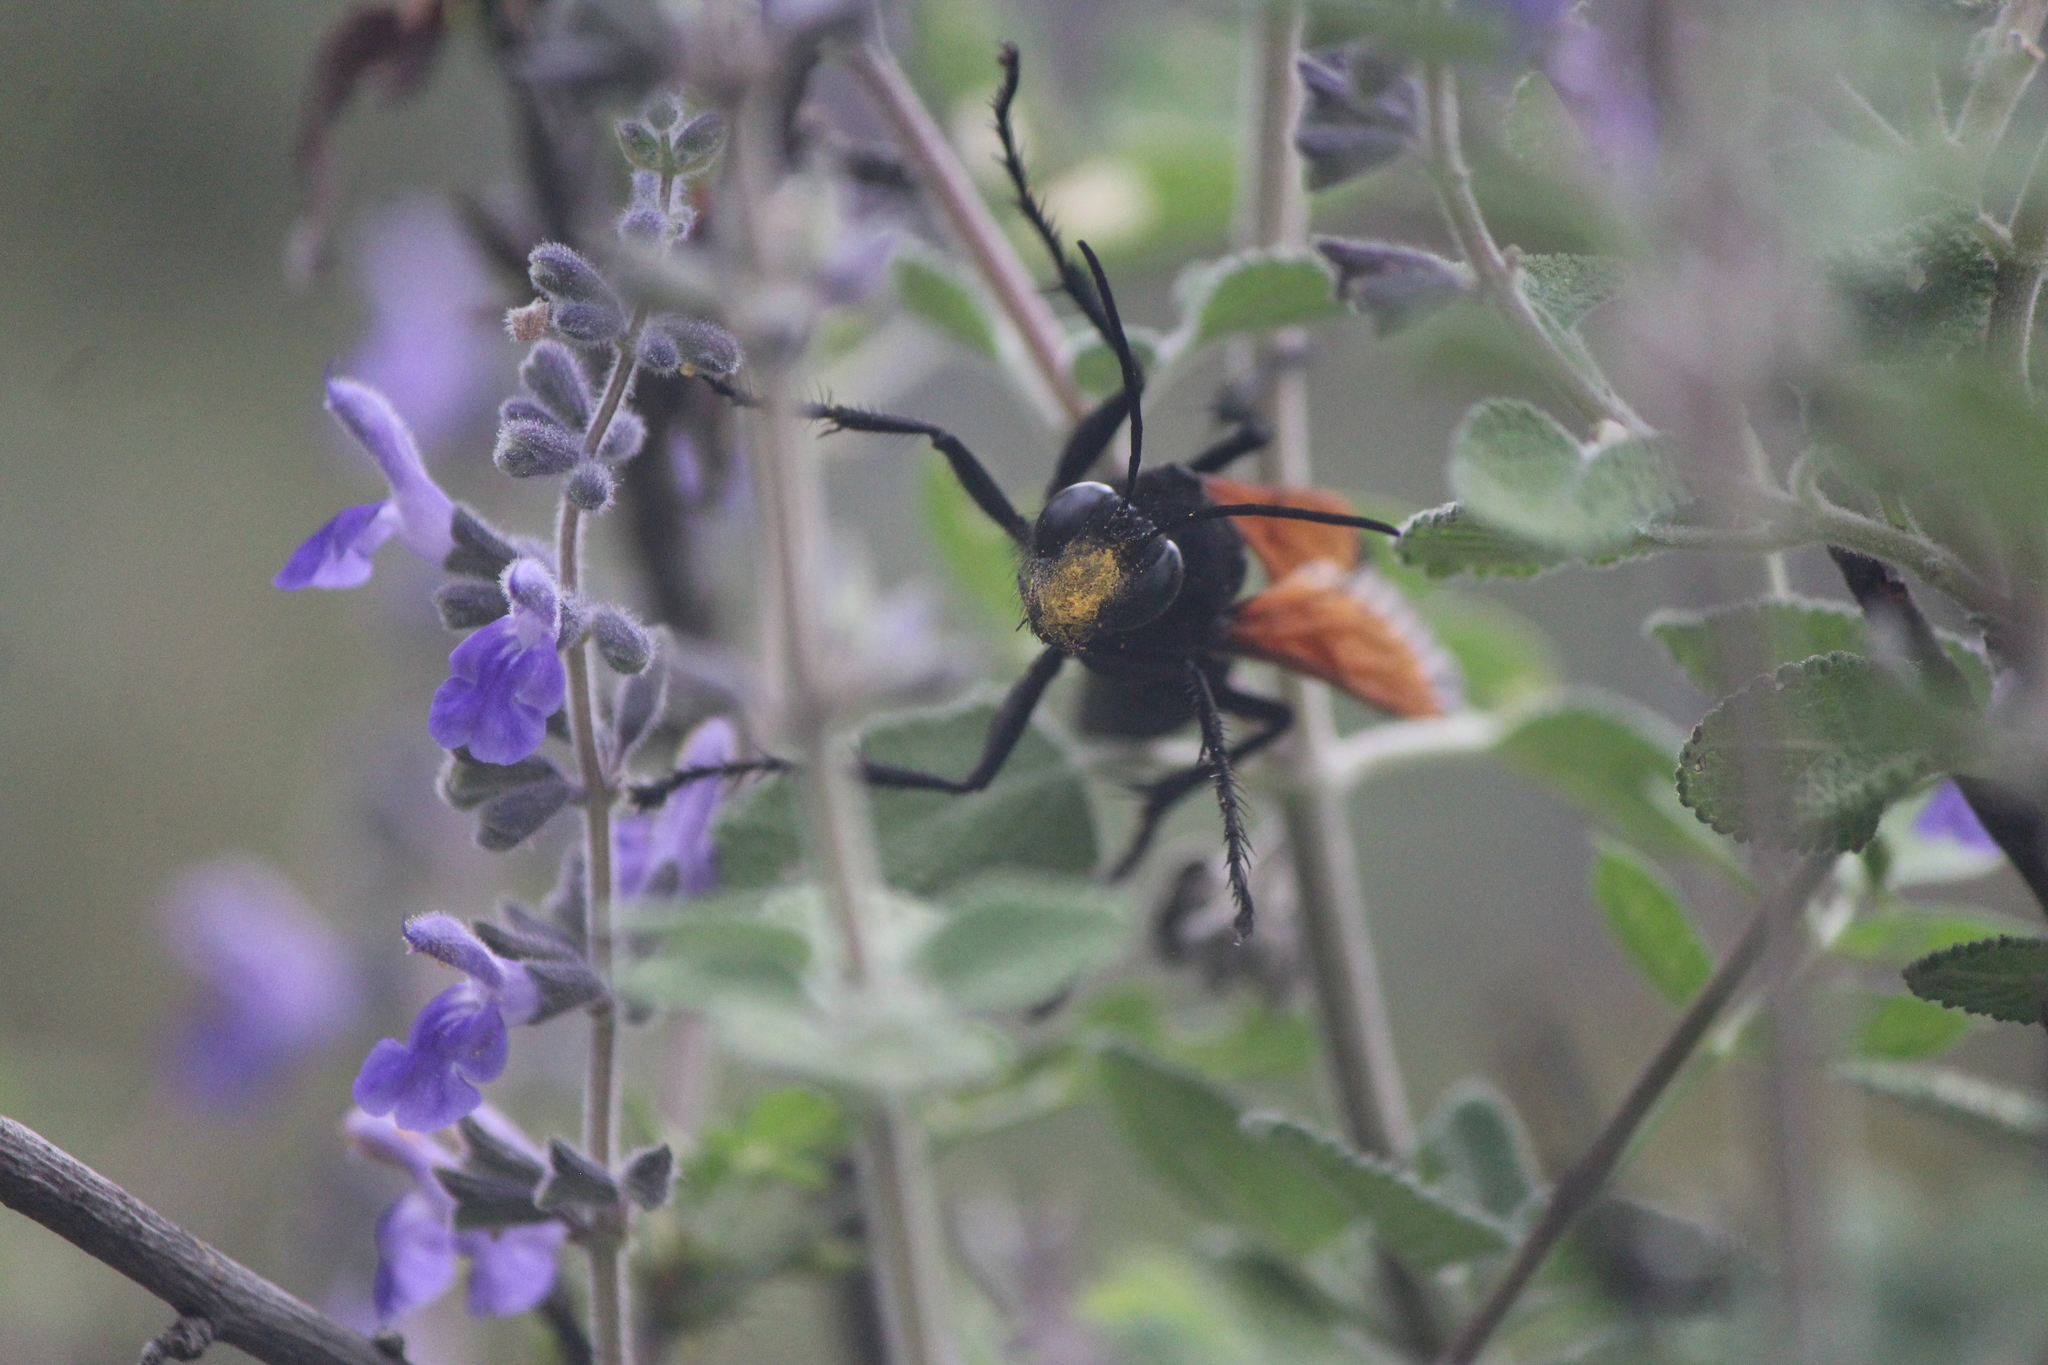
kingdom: Animalia
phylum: Arthropoda
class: Insecta
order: Hymenoptera
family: Sphecidae
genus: Sphex
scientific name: Sphex tepanecus
